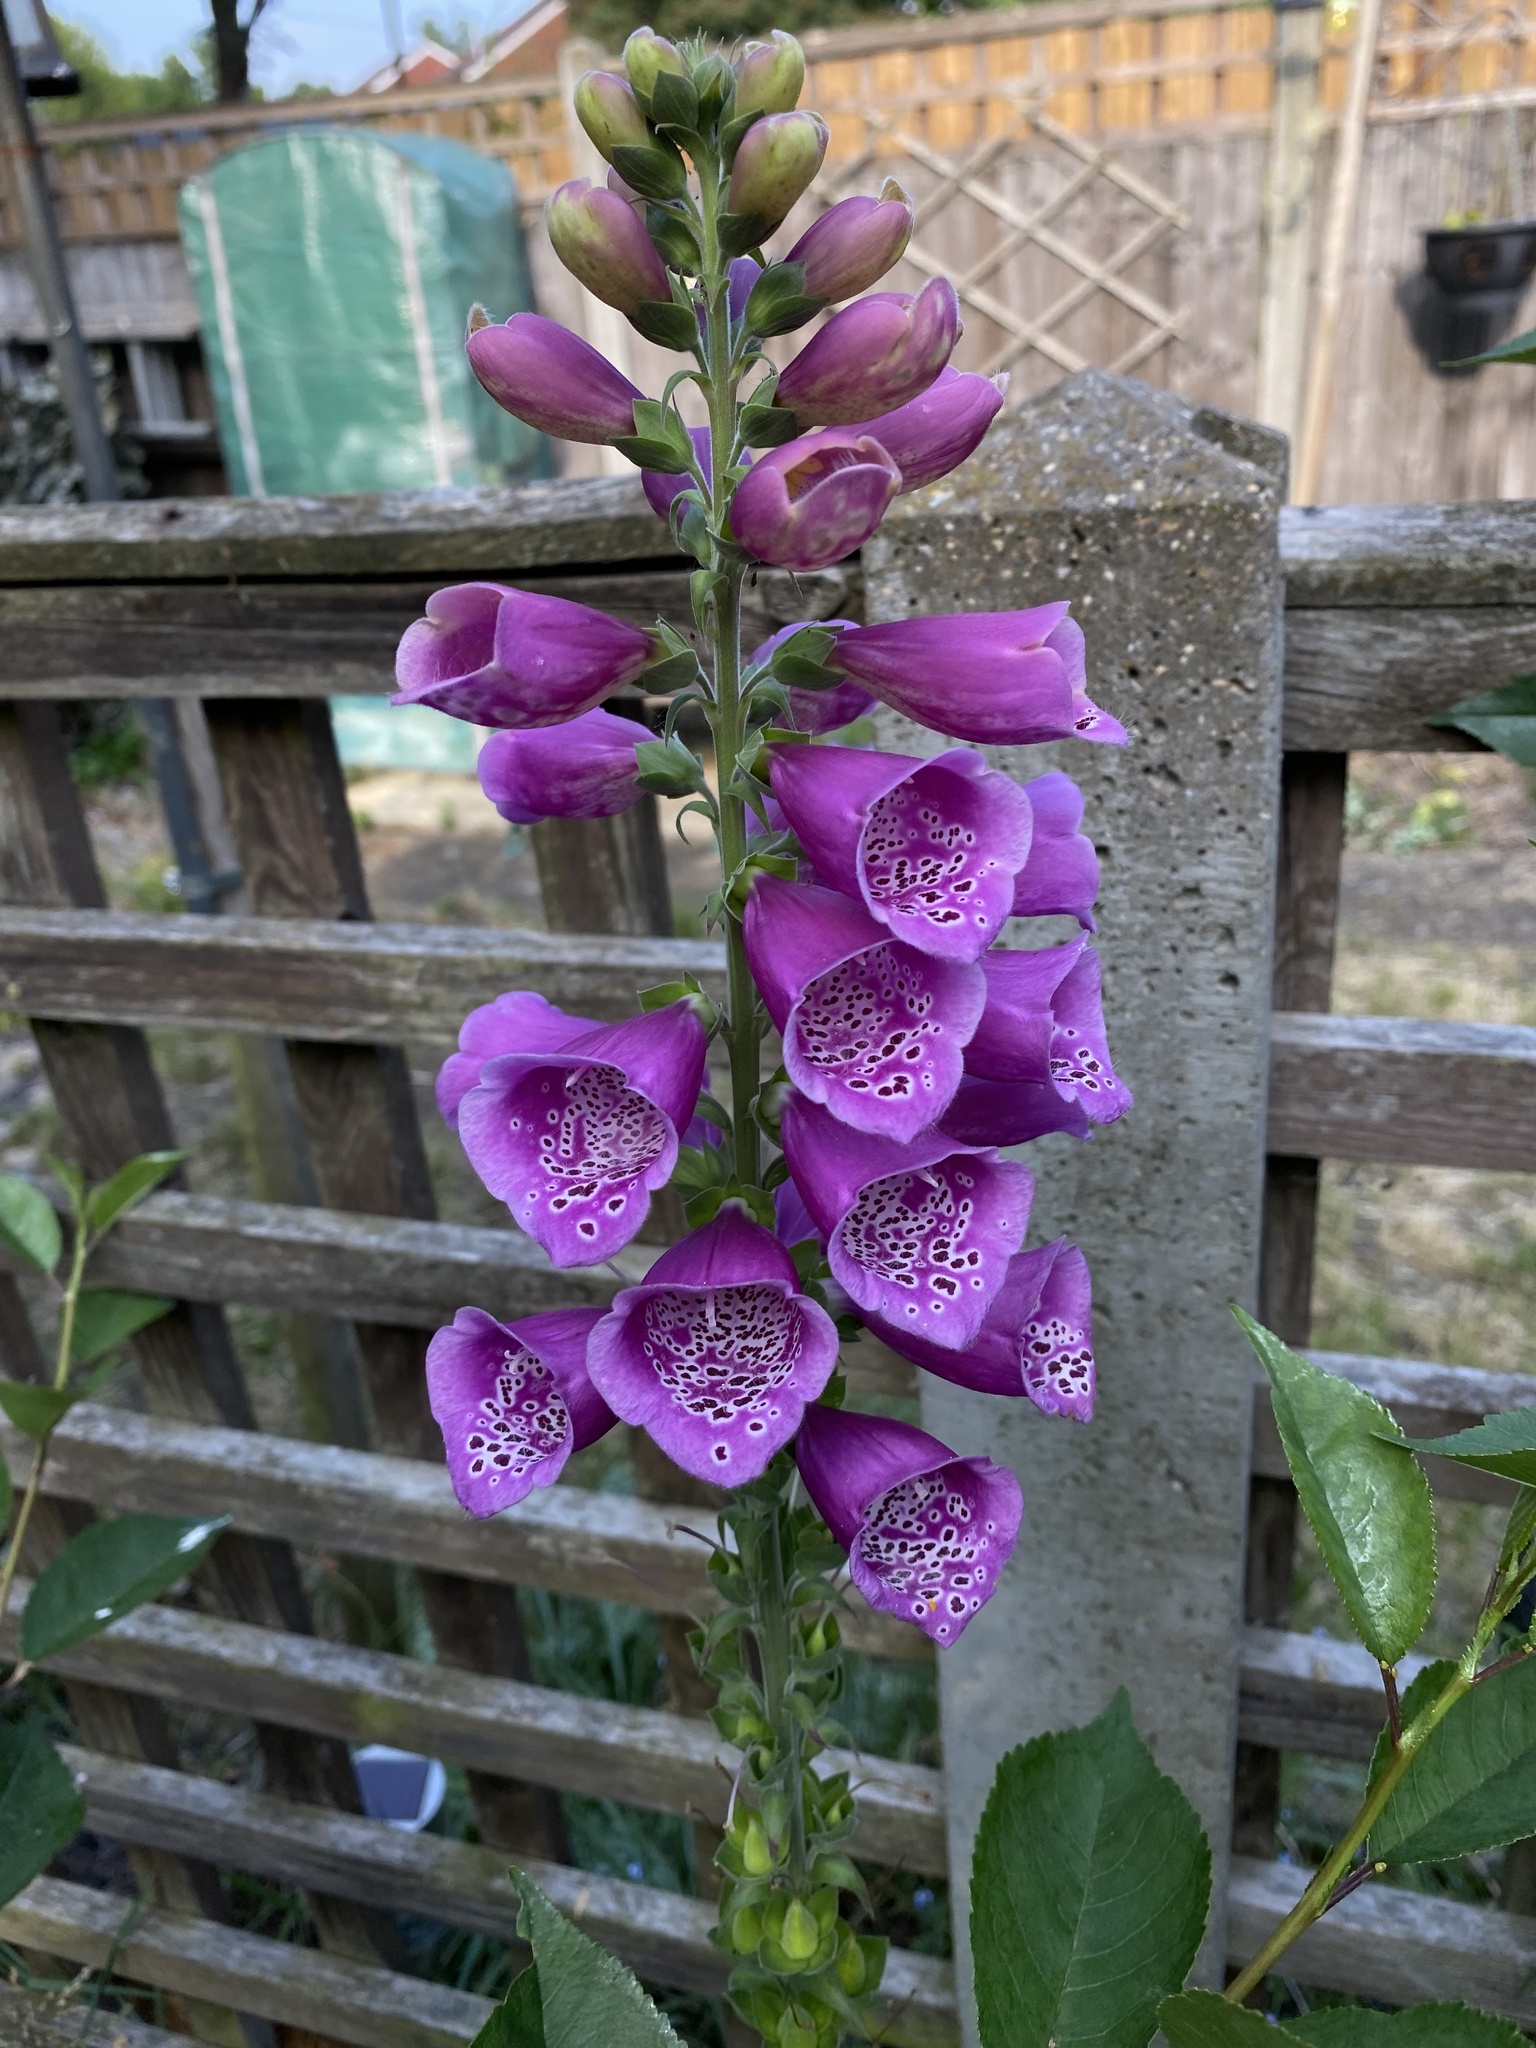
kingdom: Plantae
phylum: Tracheophyta
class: Magnoliopsida
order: Lamiales
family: Plantaginaceae
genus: Digitalis
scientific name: Digitalis purpurea
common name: Foxglove
